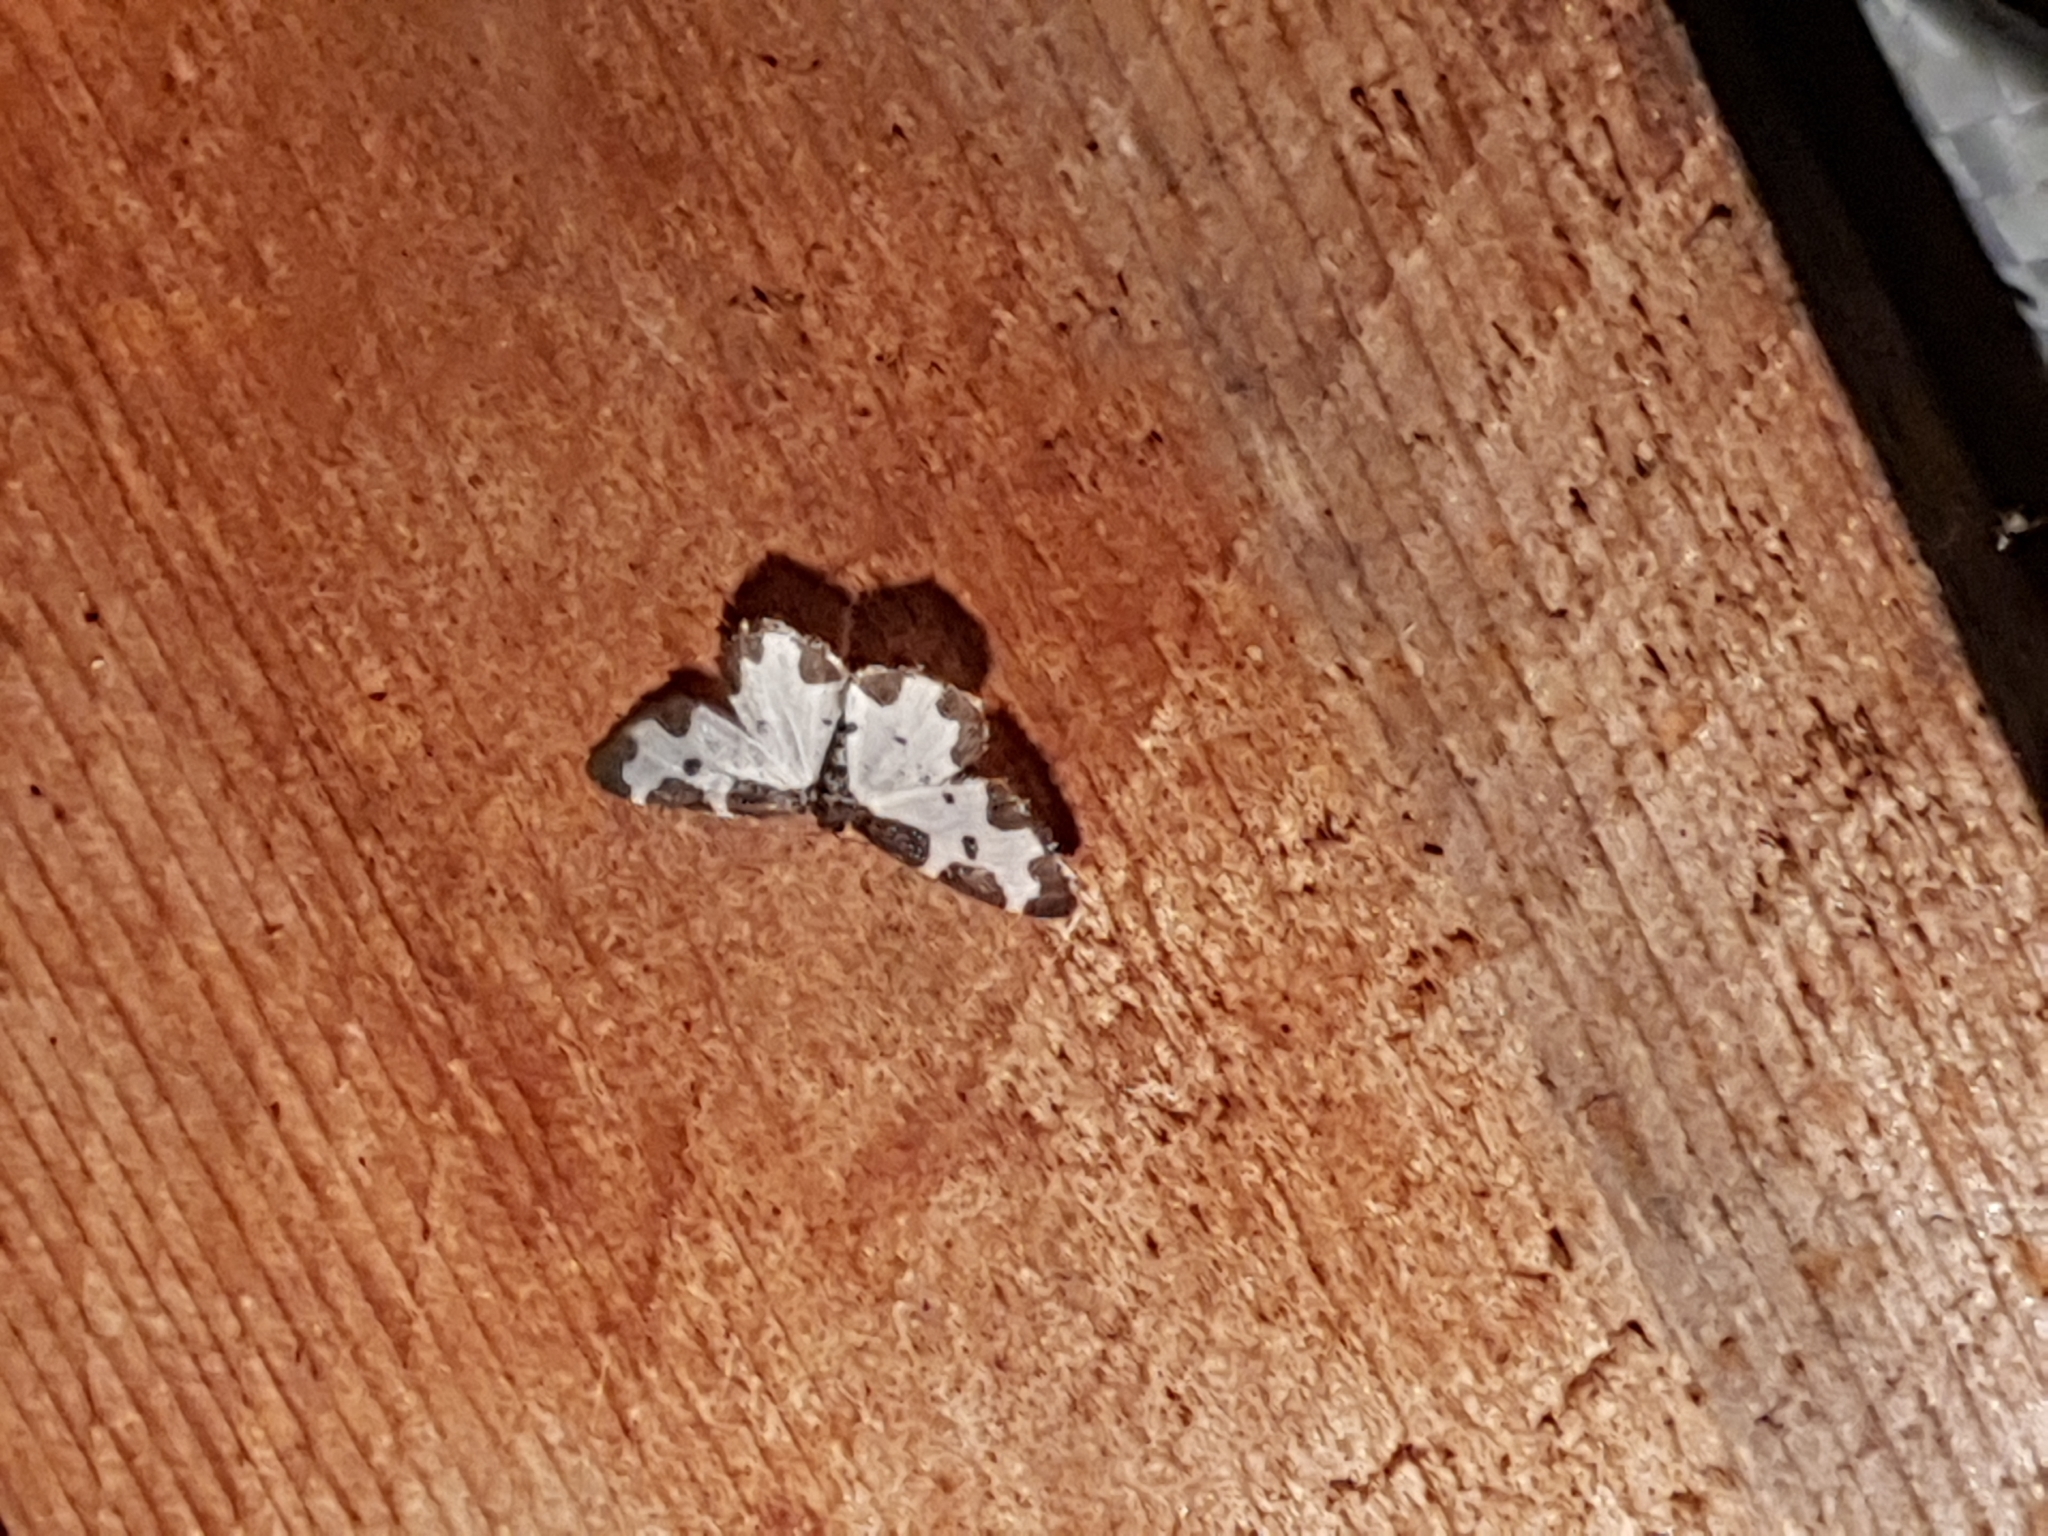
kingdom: Animalia
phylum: Arthropoda
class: Insecta
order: Lepidoptera
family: Geometridae
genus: Lomaspilis
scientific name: Lomaspilis marginata
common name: Clouded border
